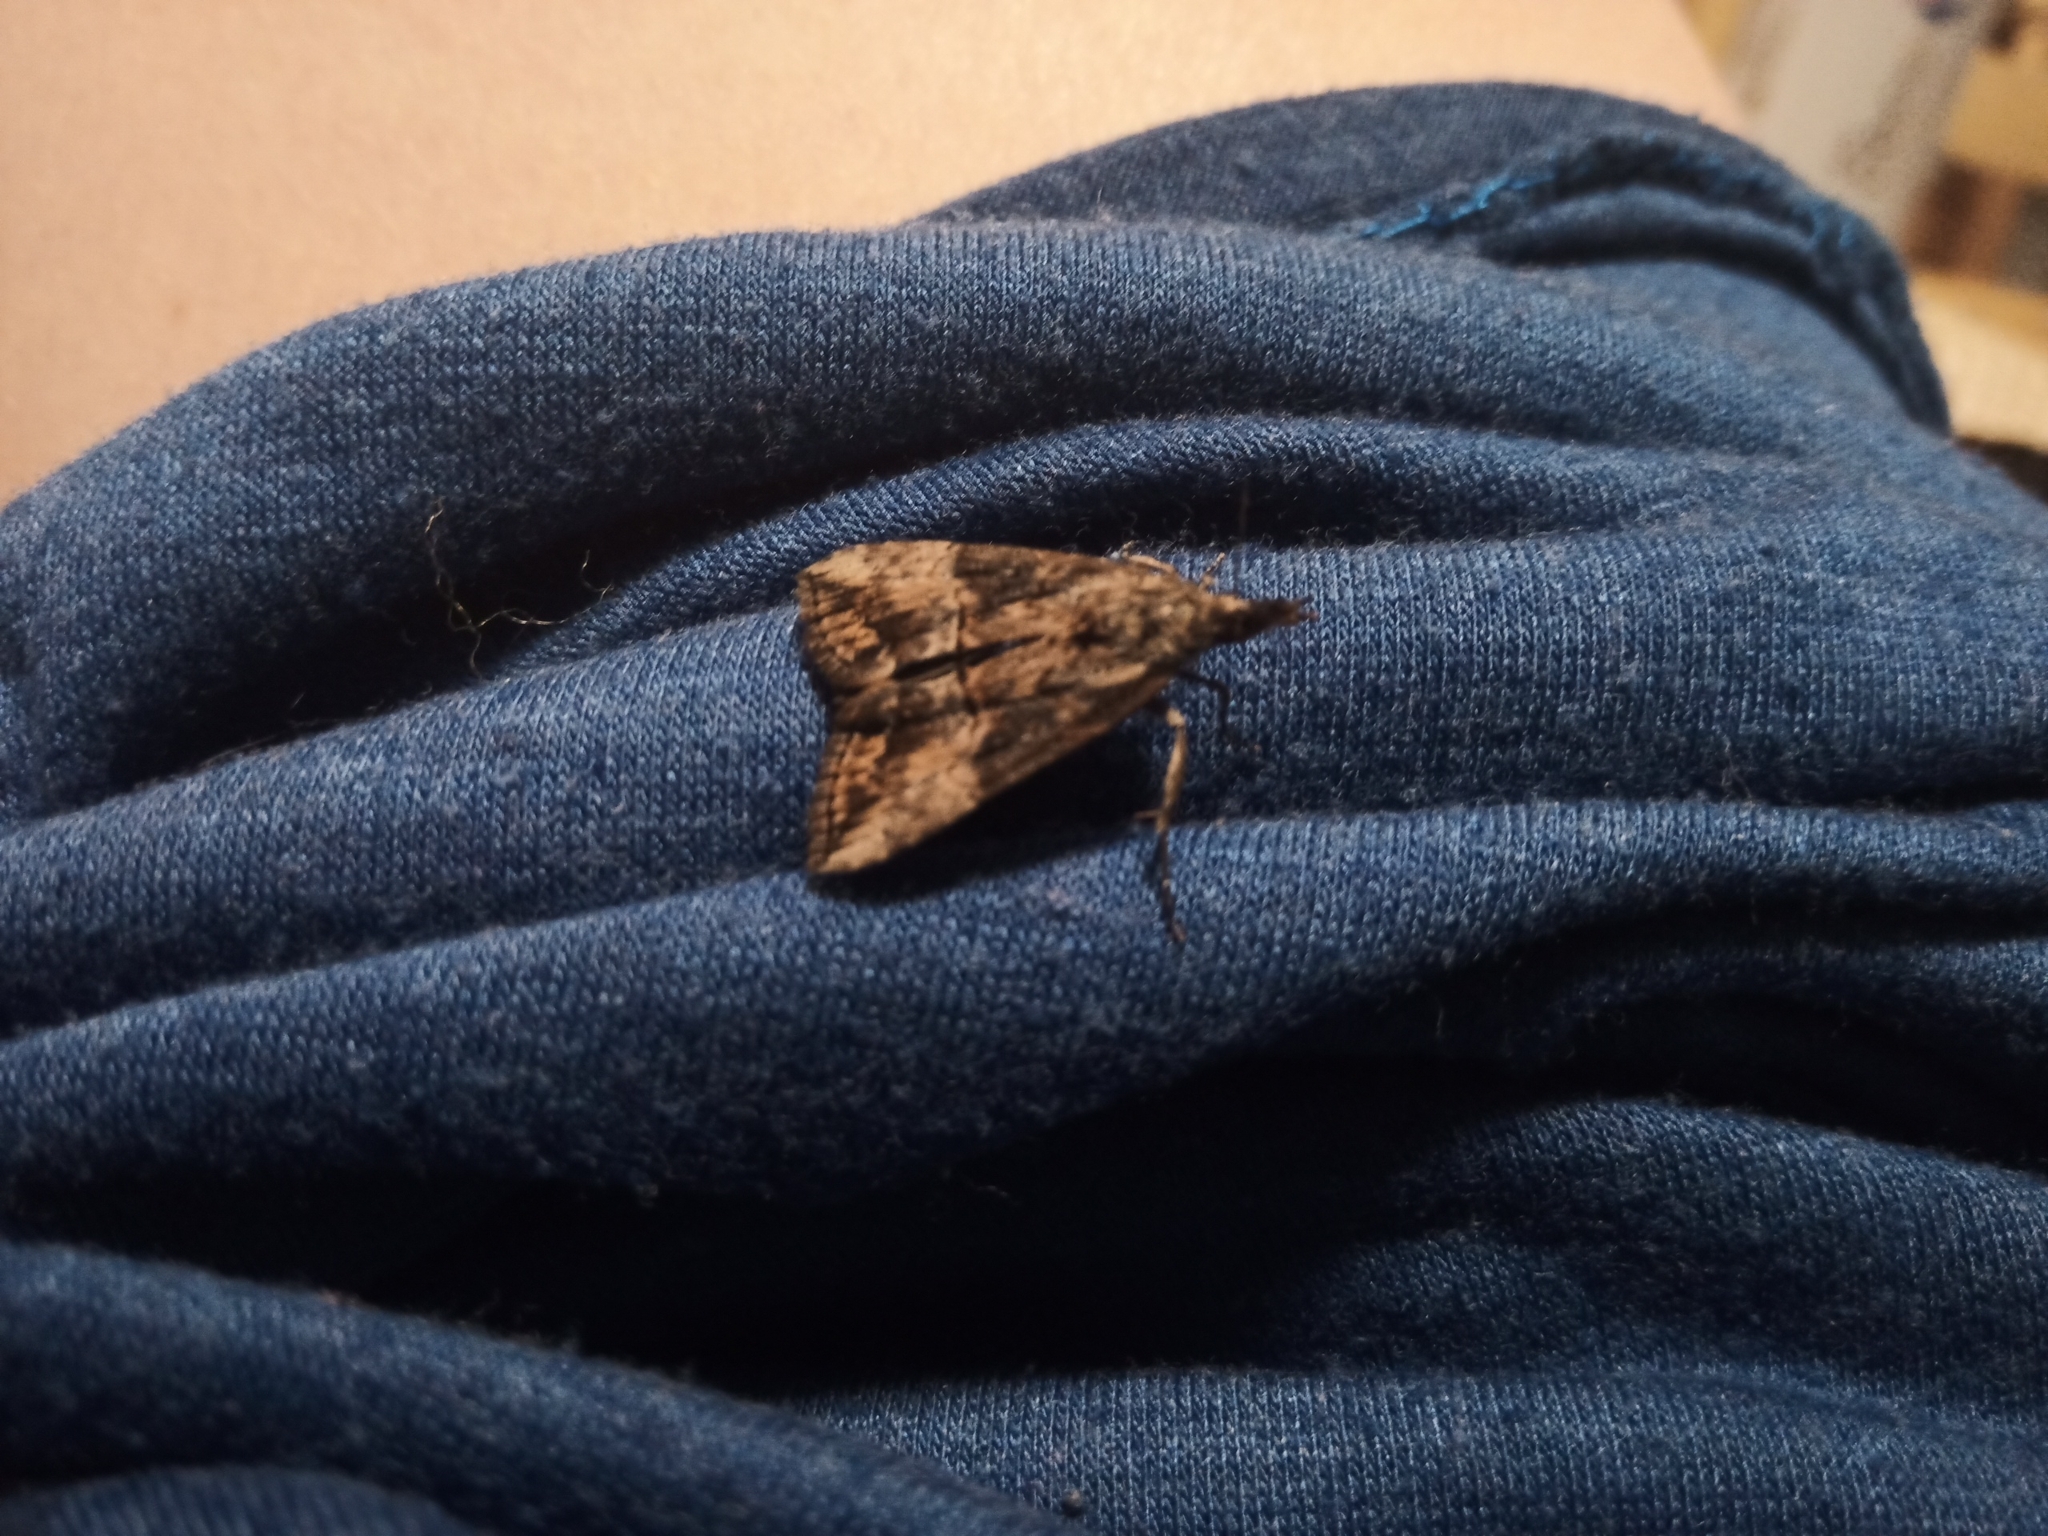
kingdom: Animalia
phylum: Arthropoda
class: Insecta
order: Lepidoptera
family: Erebidae
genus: Hypena
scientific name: Hypena scabra
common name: Green cloverworm
